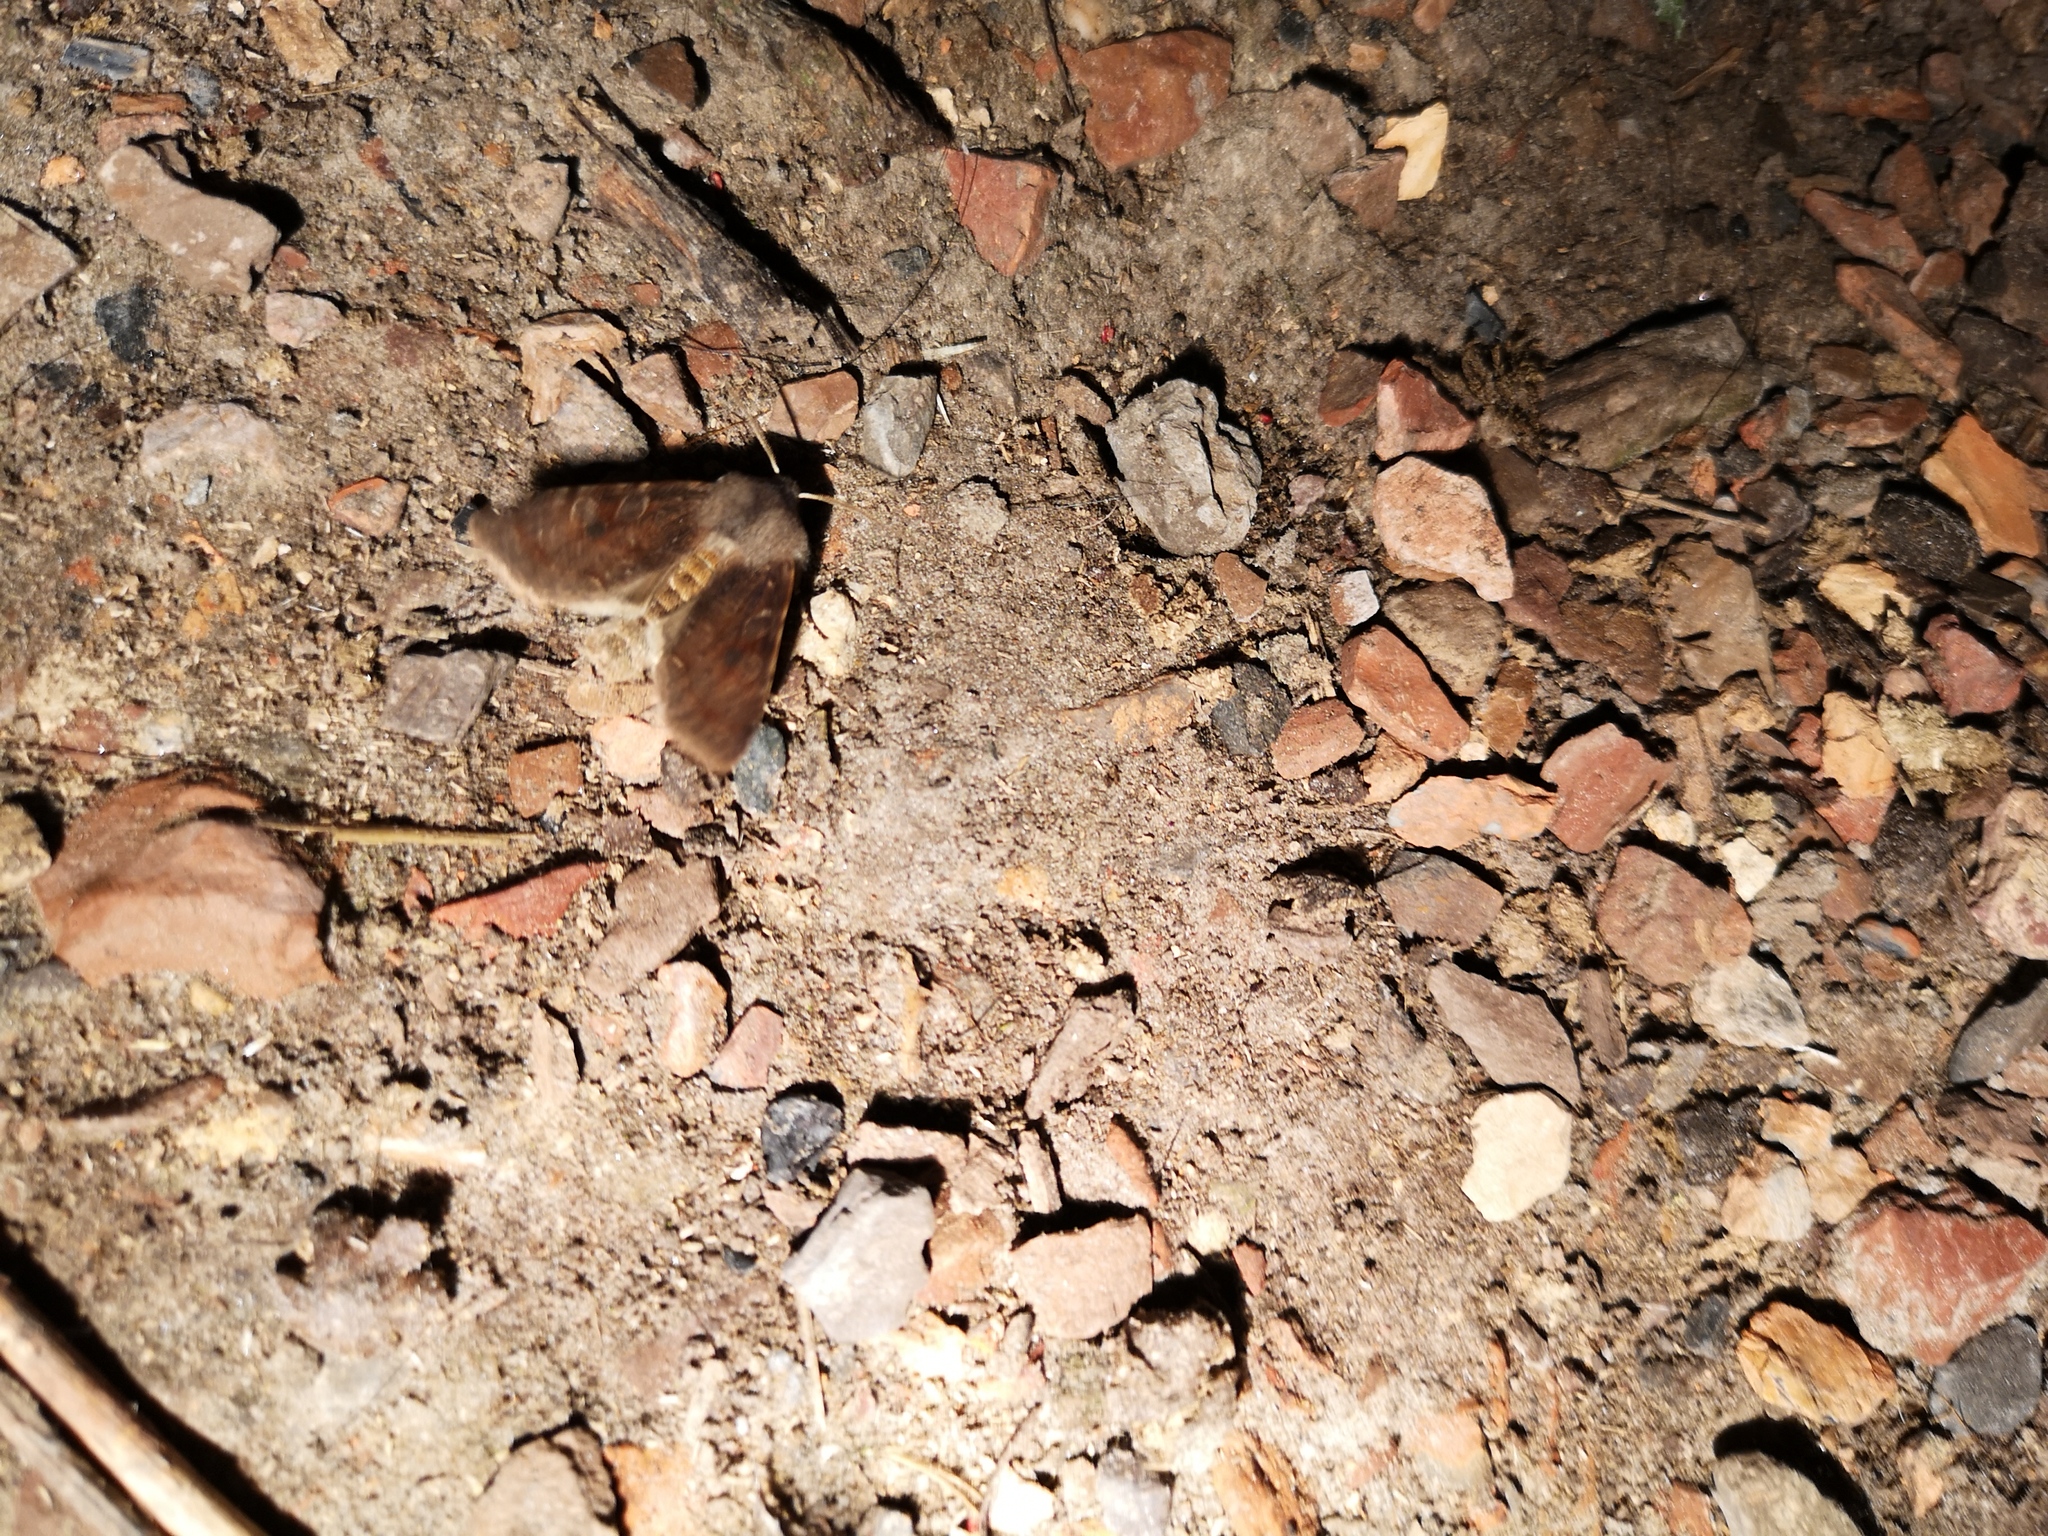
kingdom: Animalia
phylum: Arthropoda
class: Insecta
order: Lepidoptera
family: Noctuidae
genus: Orthosia
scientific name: Orthosia incerta
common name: Clouded drab
